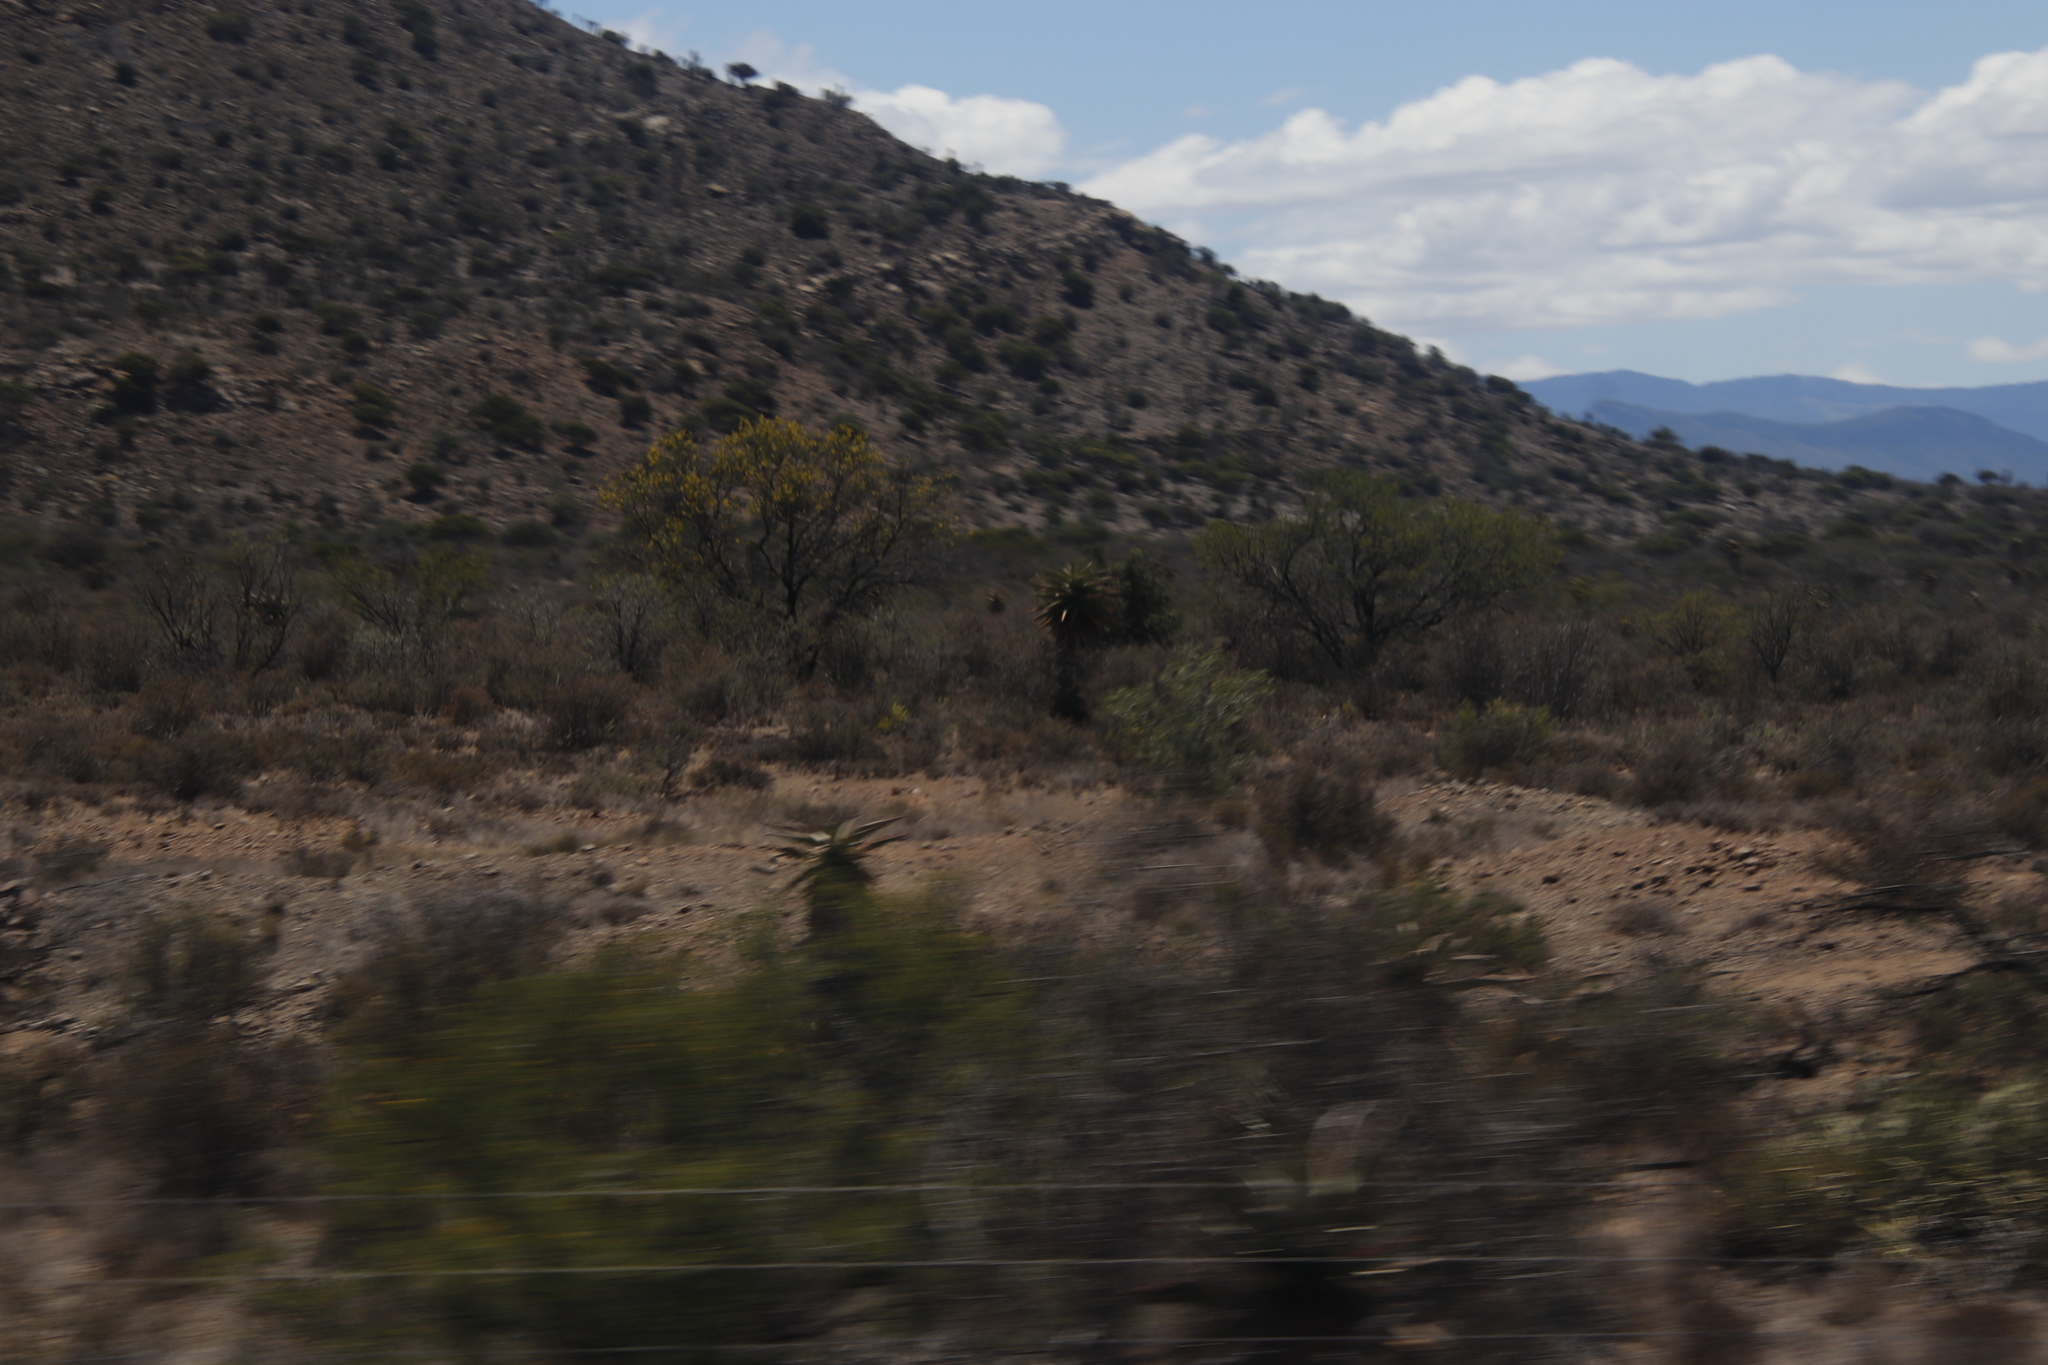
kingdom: Plantae
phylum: Tracheophyta
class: Magnoliopsida
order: Fabales
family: Fabaceae
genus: Vachellia
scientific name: Vachellia karroo
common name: Sweet thorn
